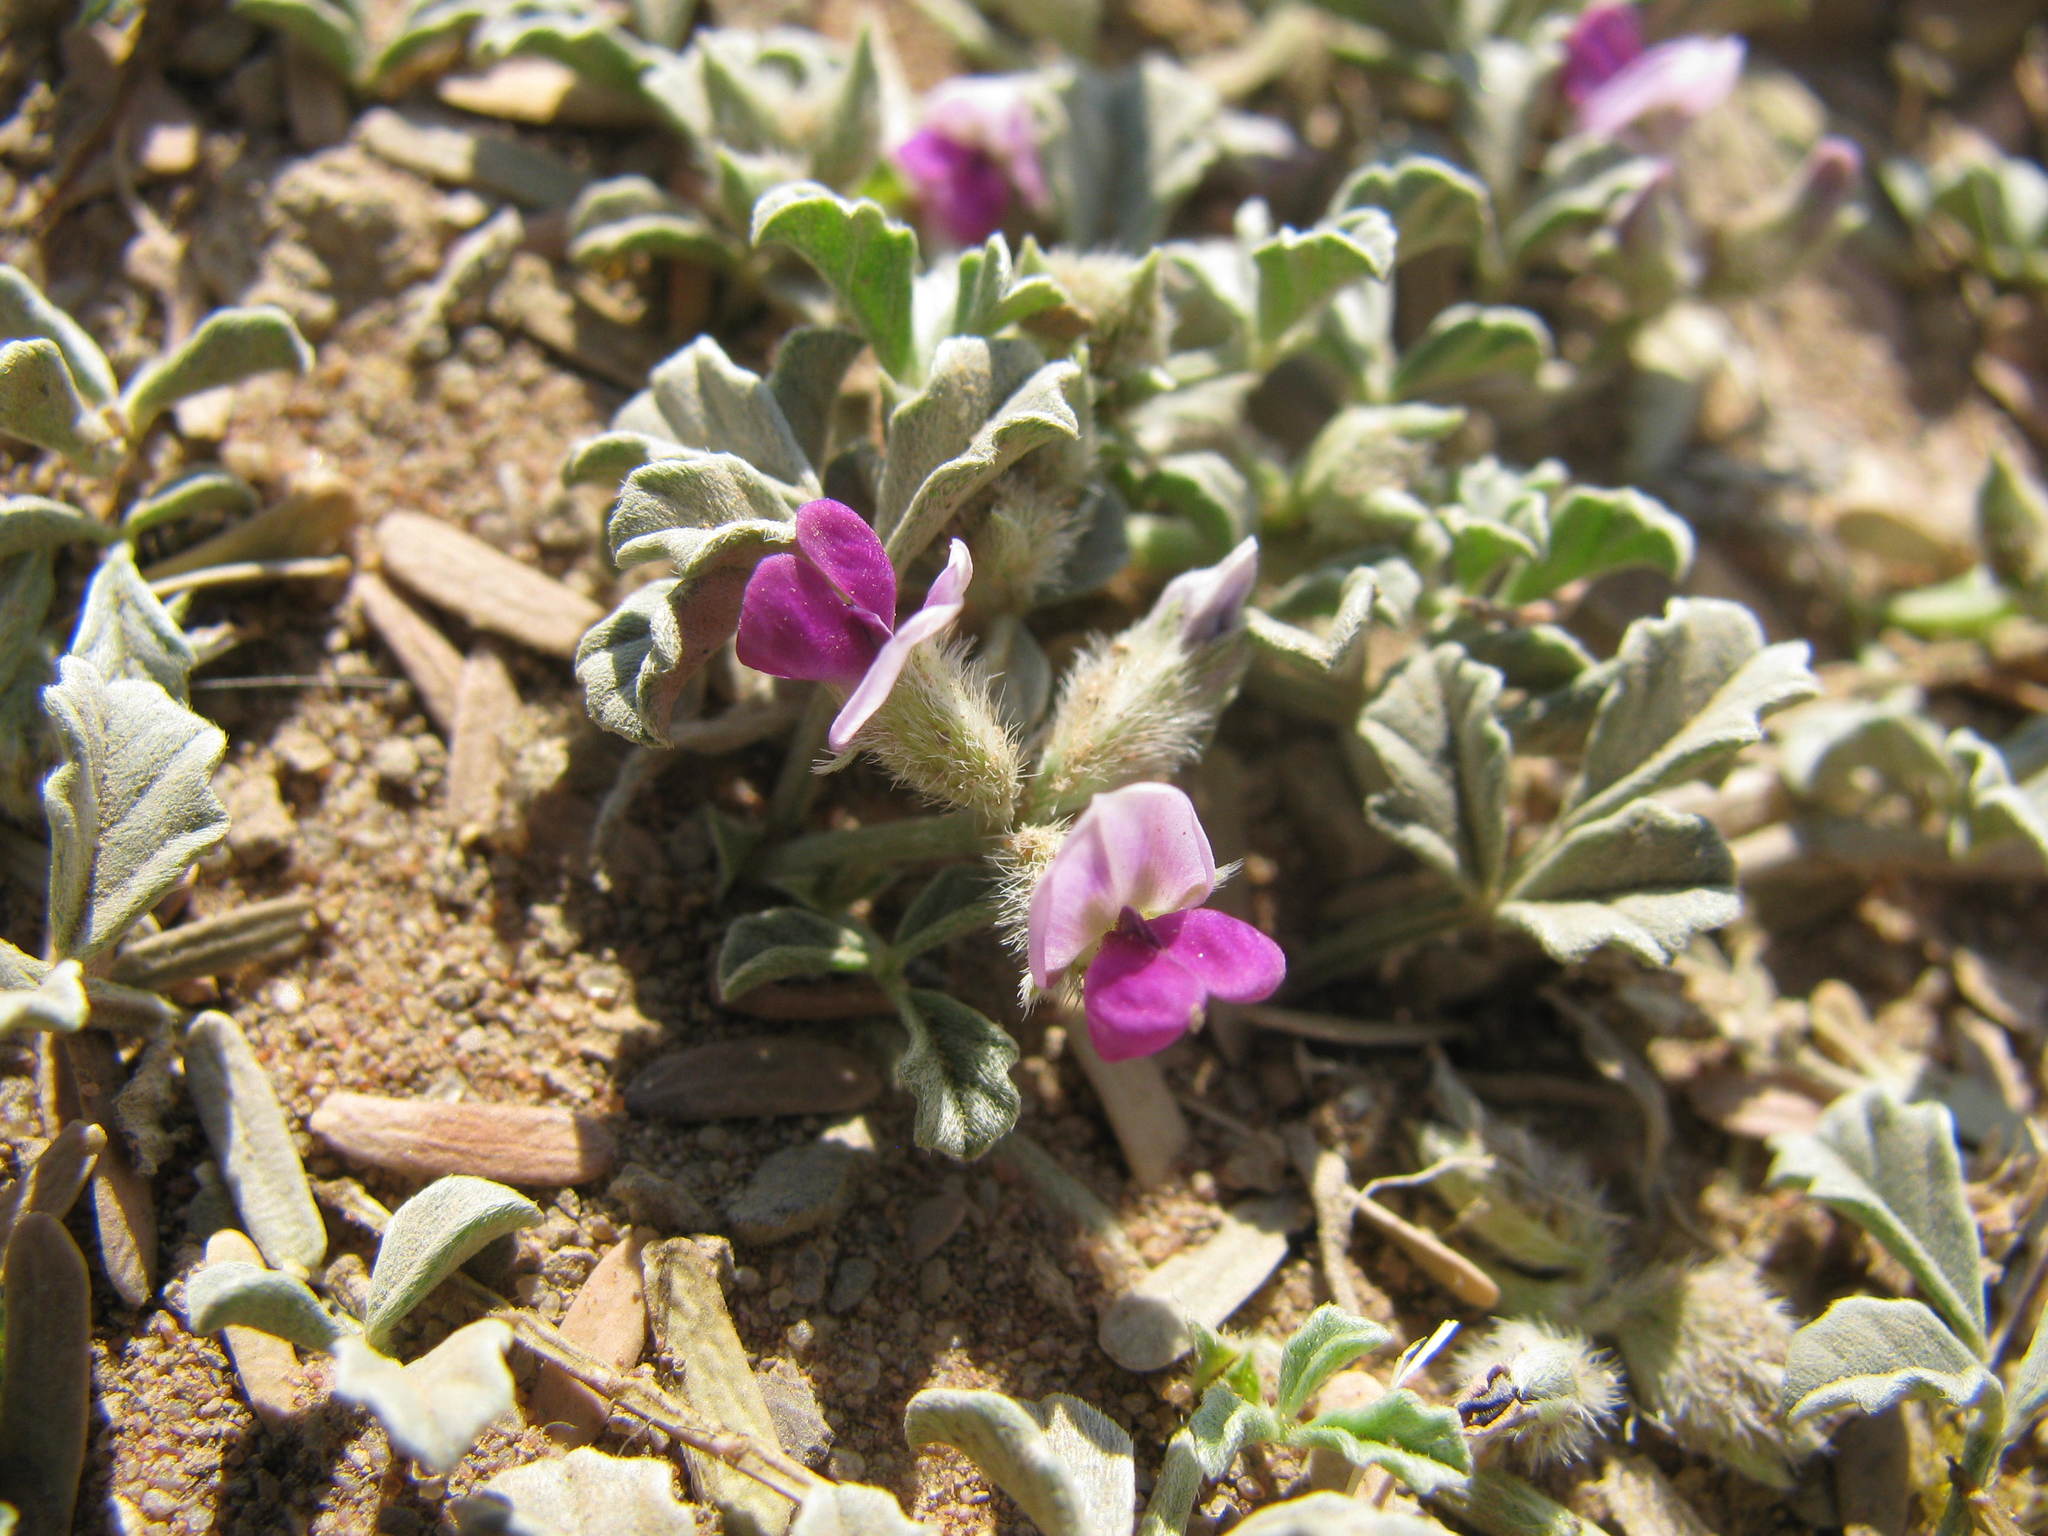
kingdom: Plantae
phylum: Tracheophyta
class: Magnoliopsida
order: Fabales
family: Fabaceae
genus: Cullen
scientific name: Cullen tomentosum
